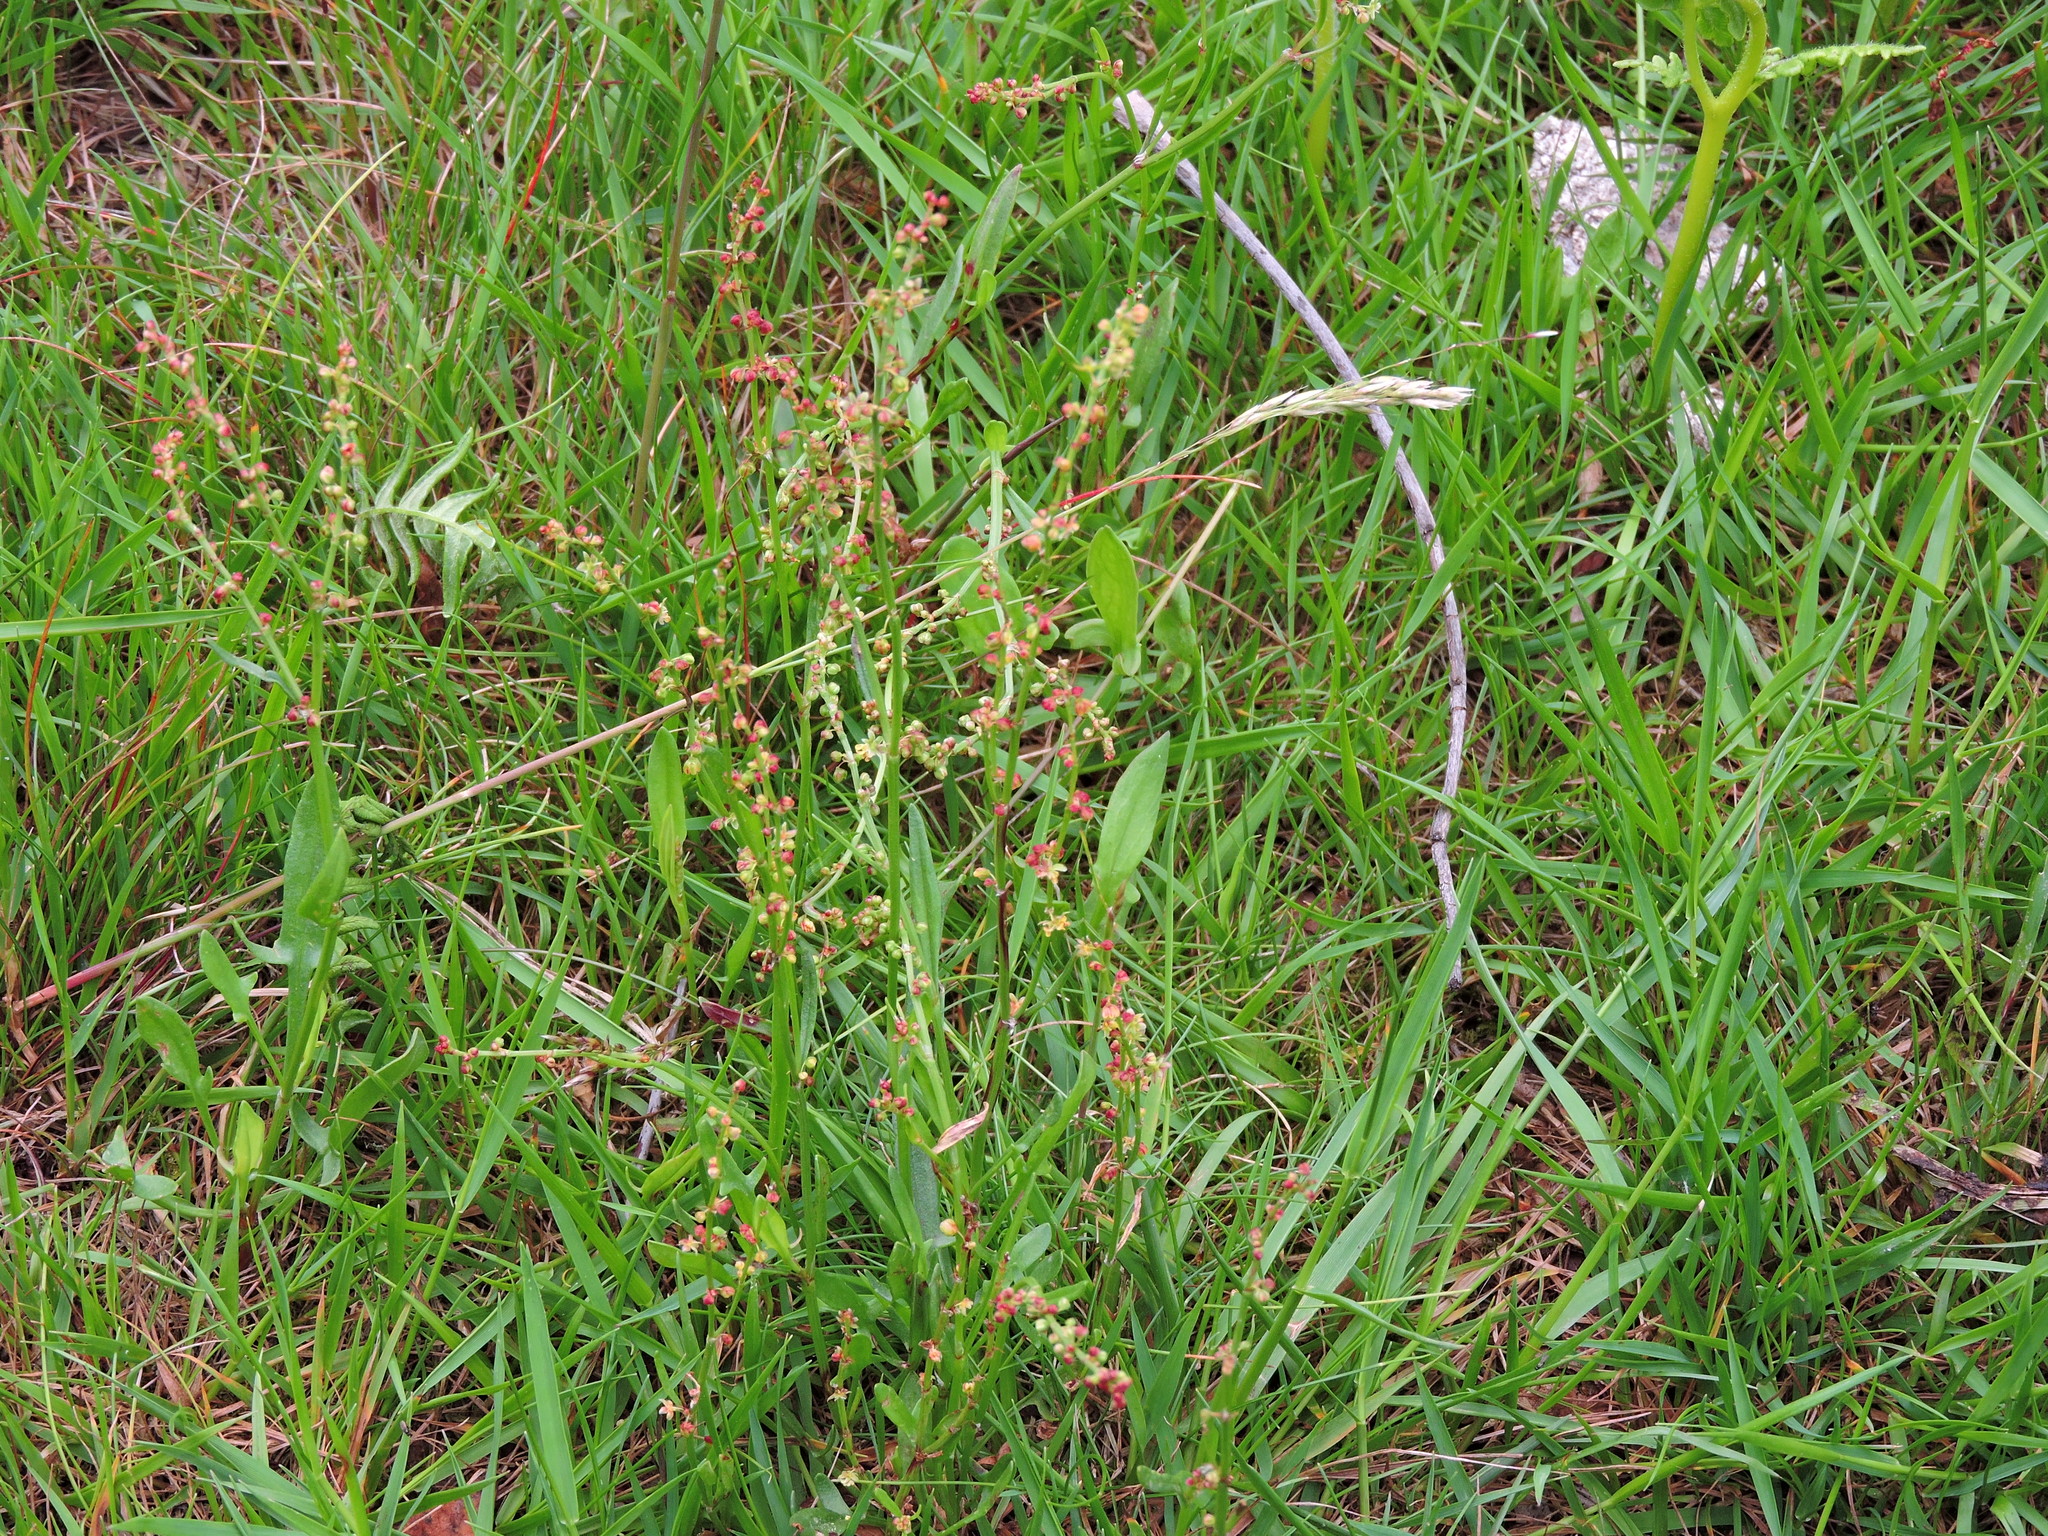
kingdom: Plantae
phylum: Tracheophyta
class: Magnoliopsida
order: Caryophyllales
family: Polygonaceae
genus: Rumex
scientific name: Rumex acetosella
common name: Common sheep sorrel
